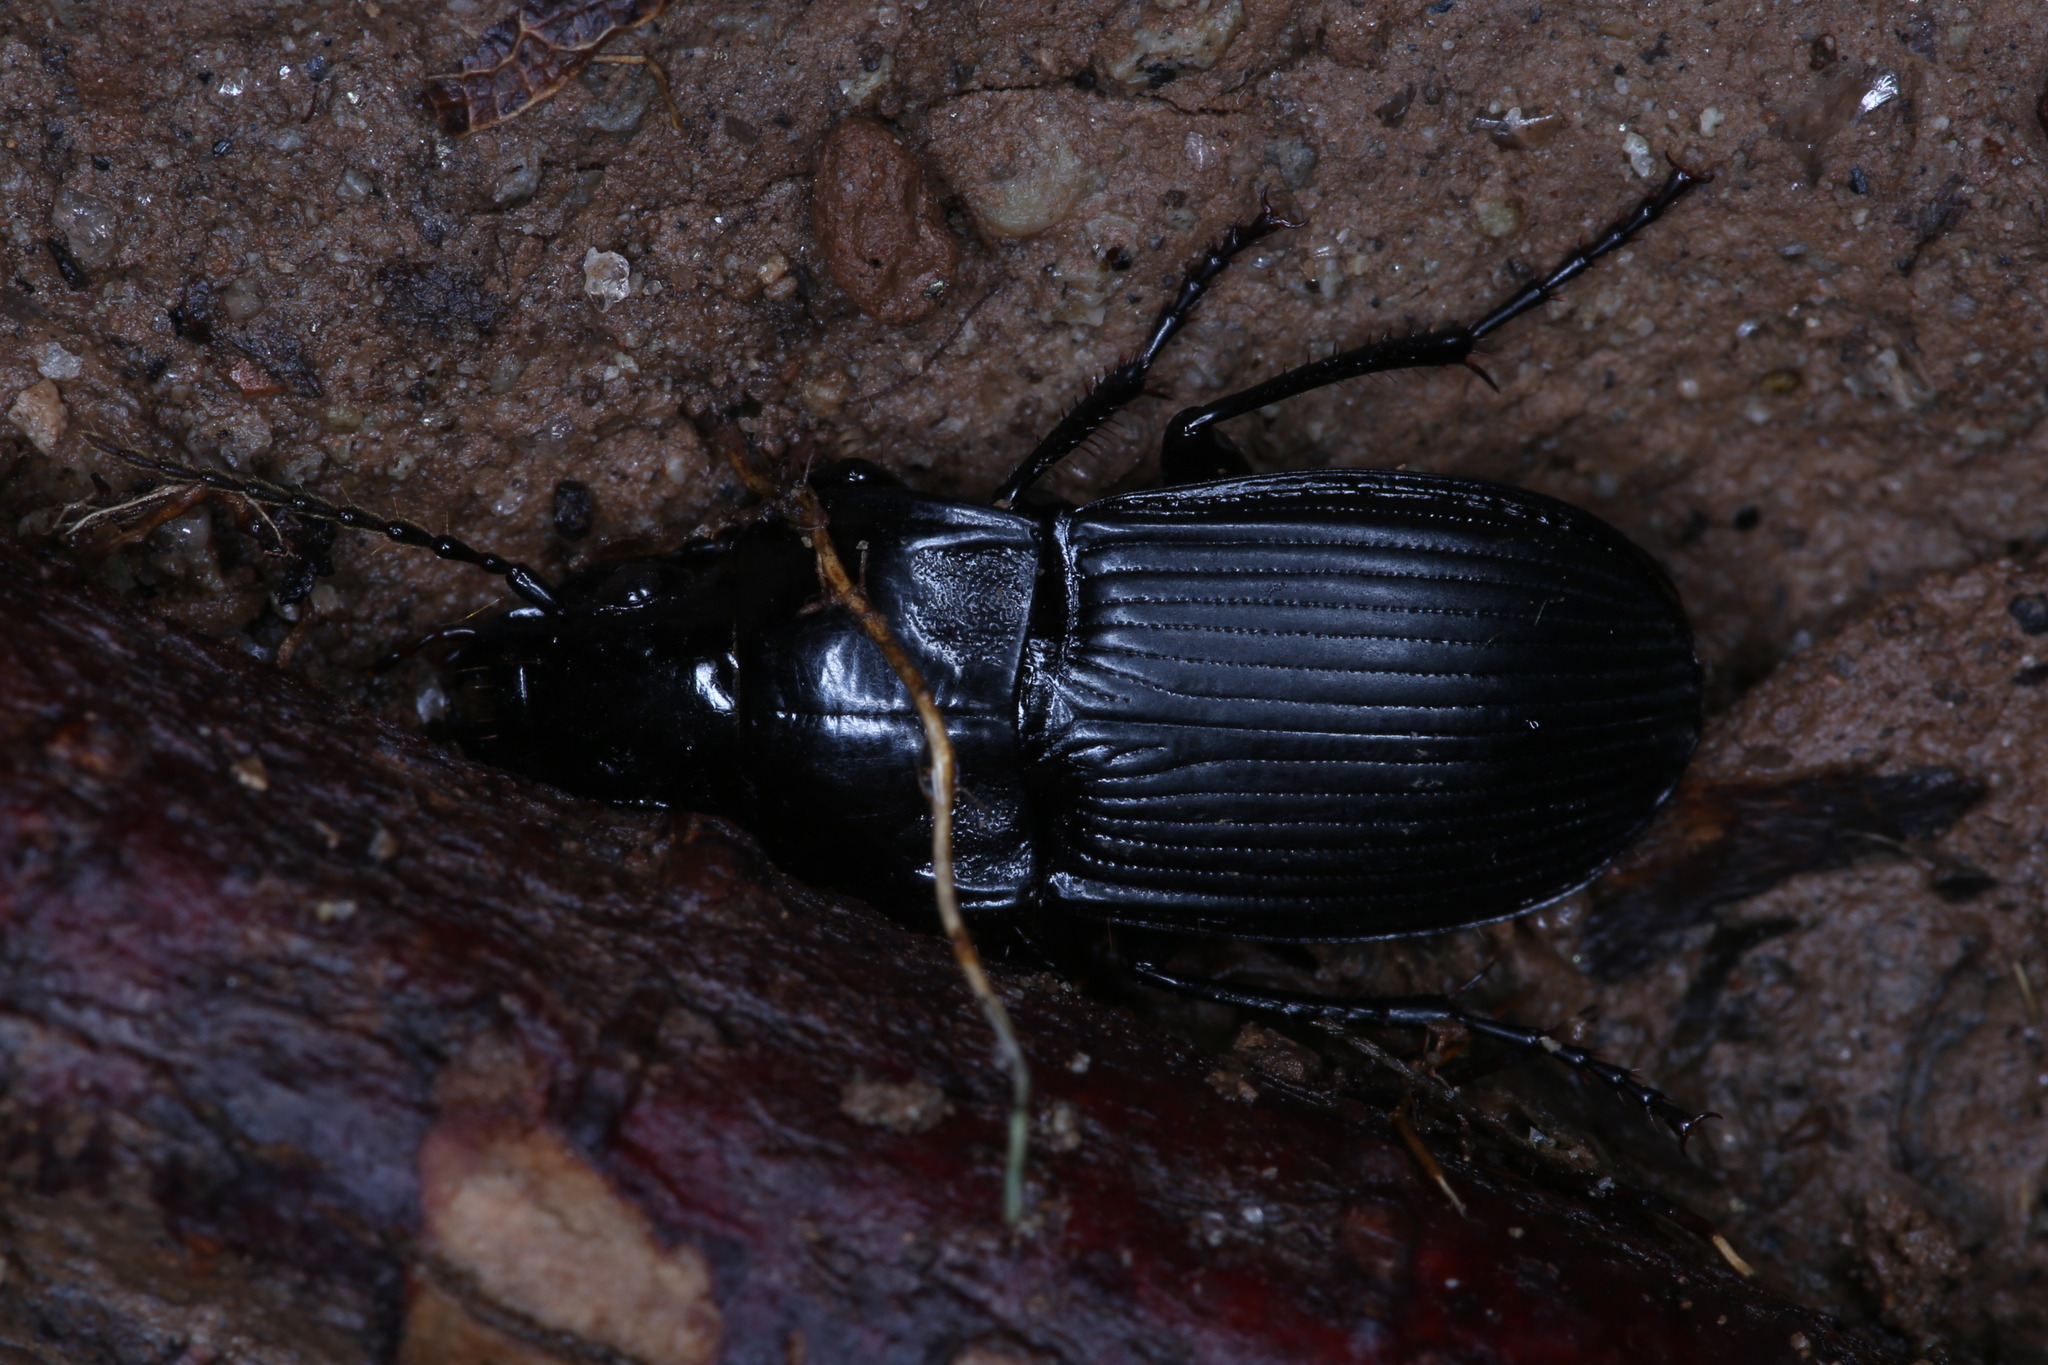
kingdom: Animalia
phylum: Arthropoda
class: Insecta
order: Coleoptera
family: Carabidae
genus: Abax
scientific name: Abax carinatus
